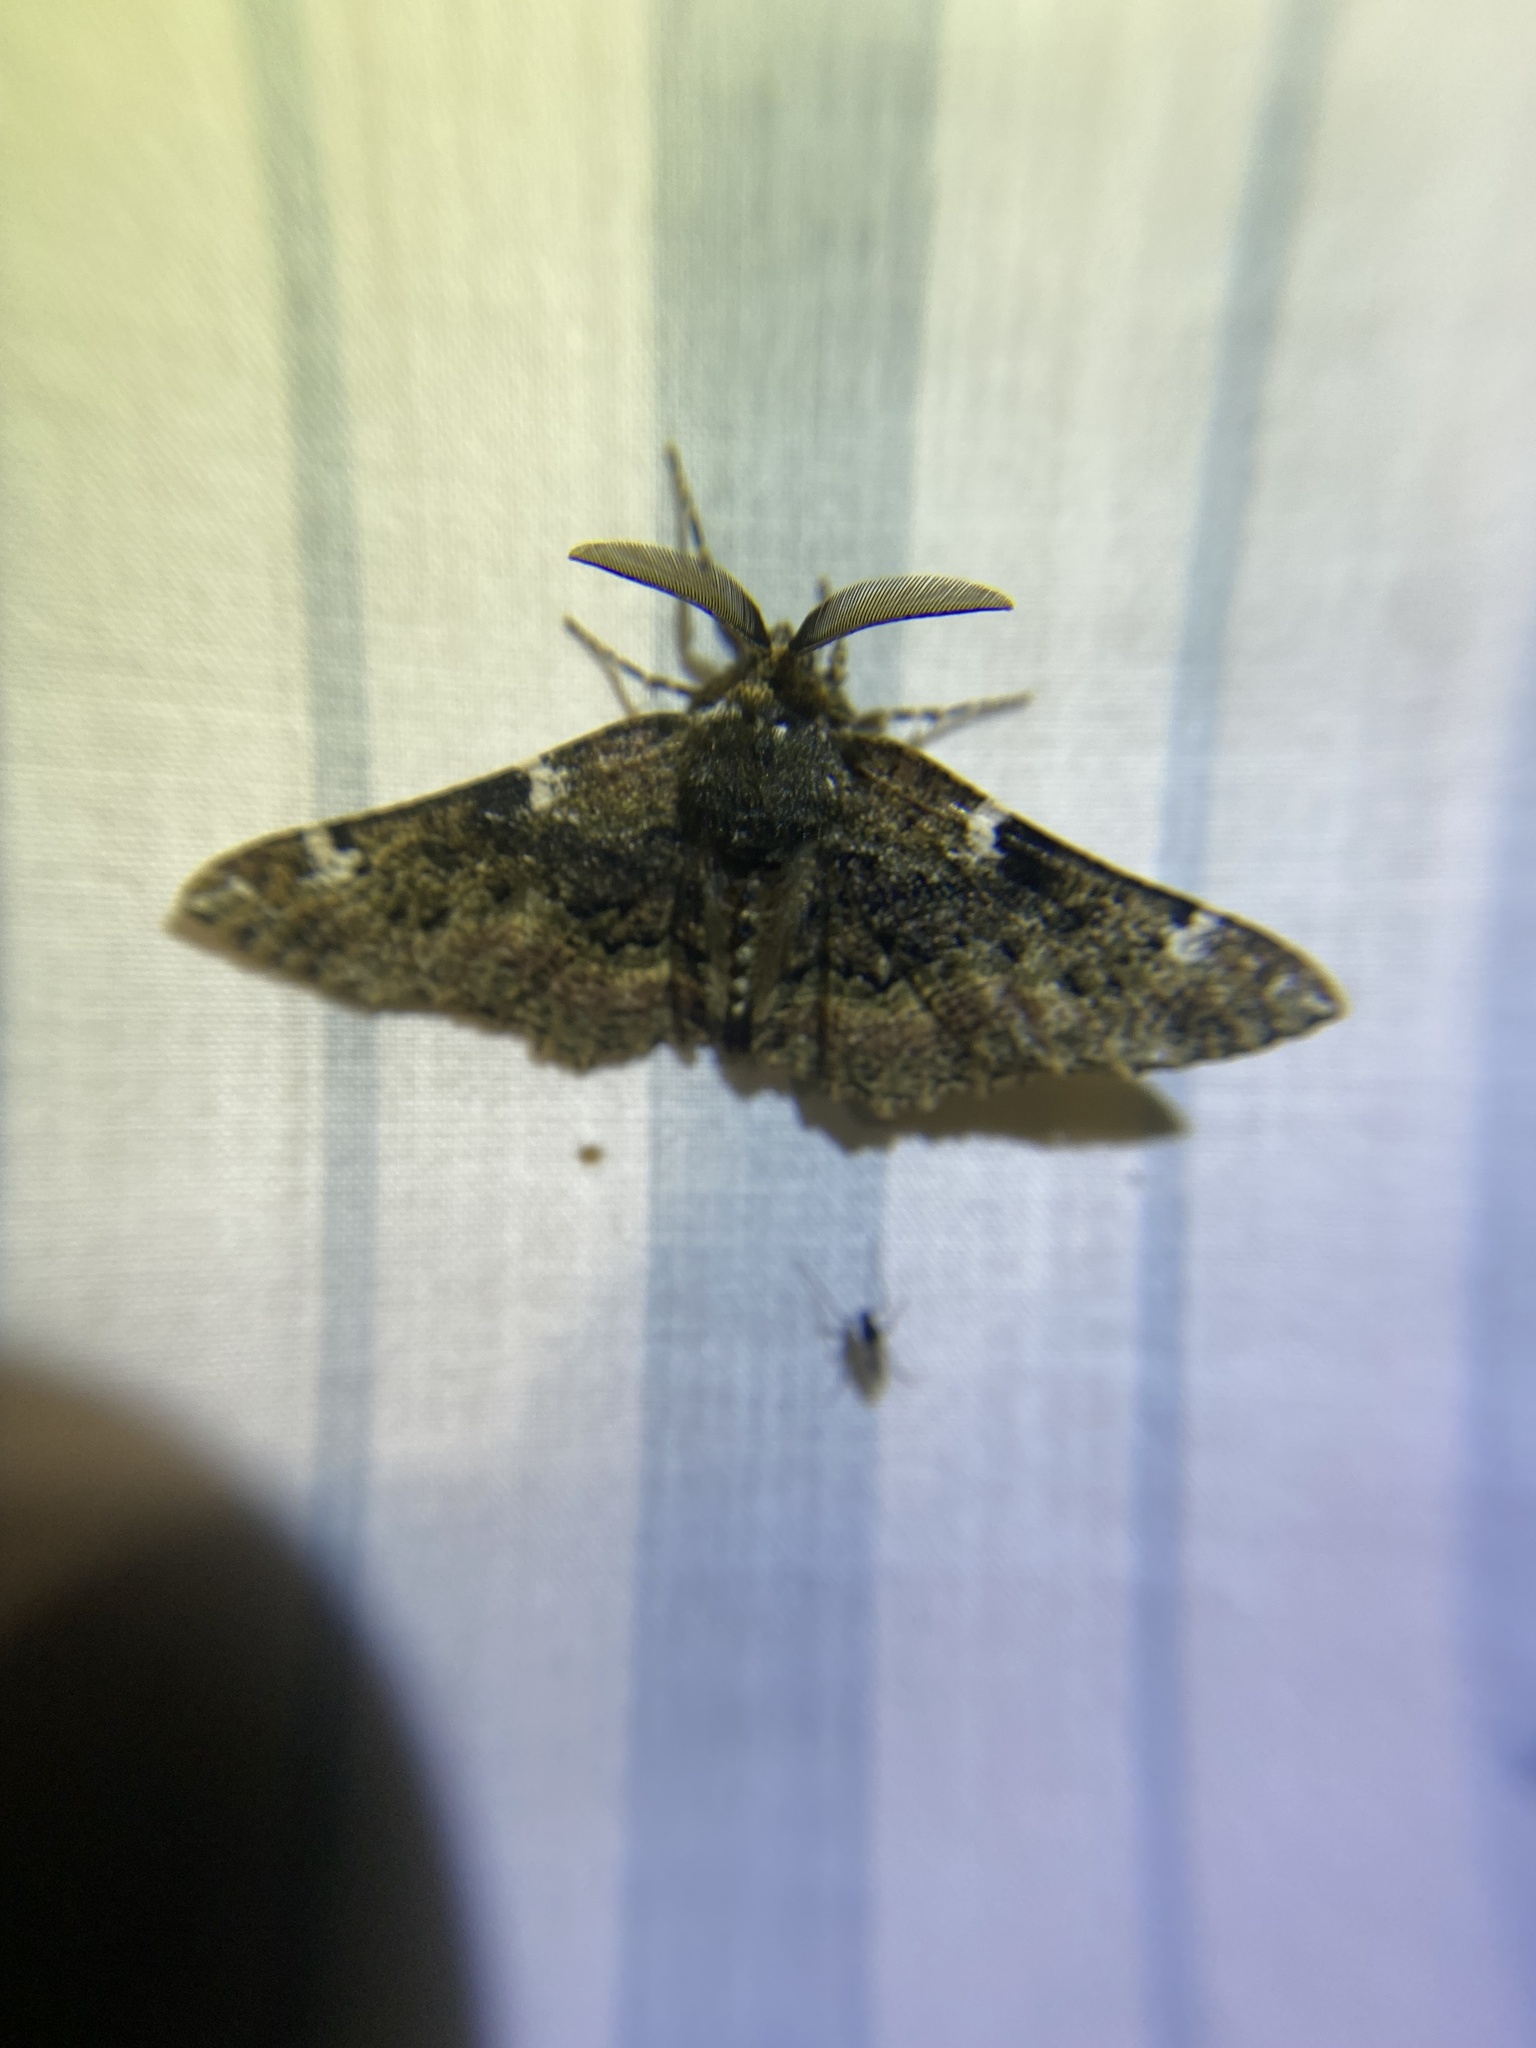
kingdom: Animalia
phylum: Arthropoda
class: Insecta
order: Lepidoptera
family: Geometridae
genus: Phaeoura
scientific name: Phaeoura quernaria
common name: Oak beauty
